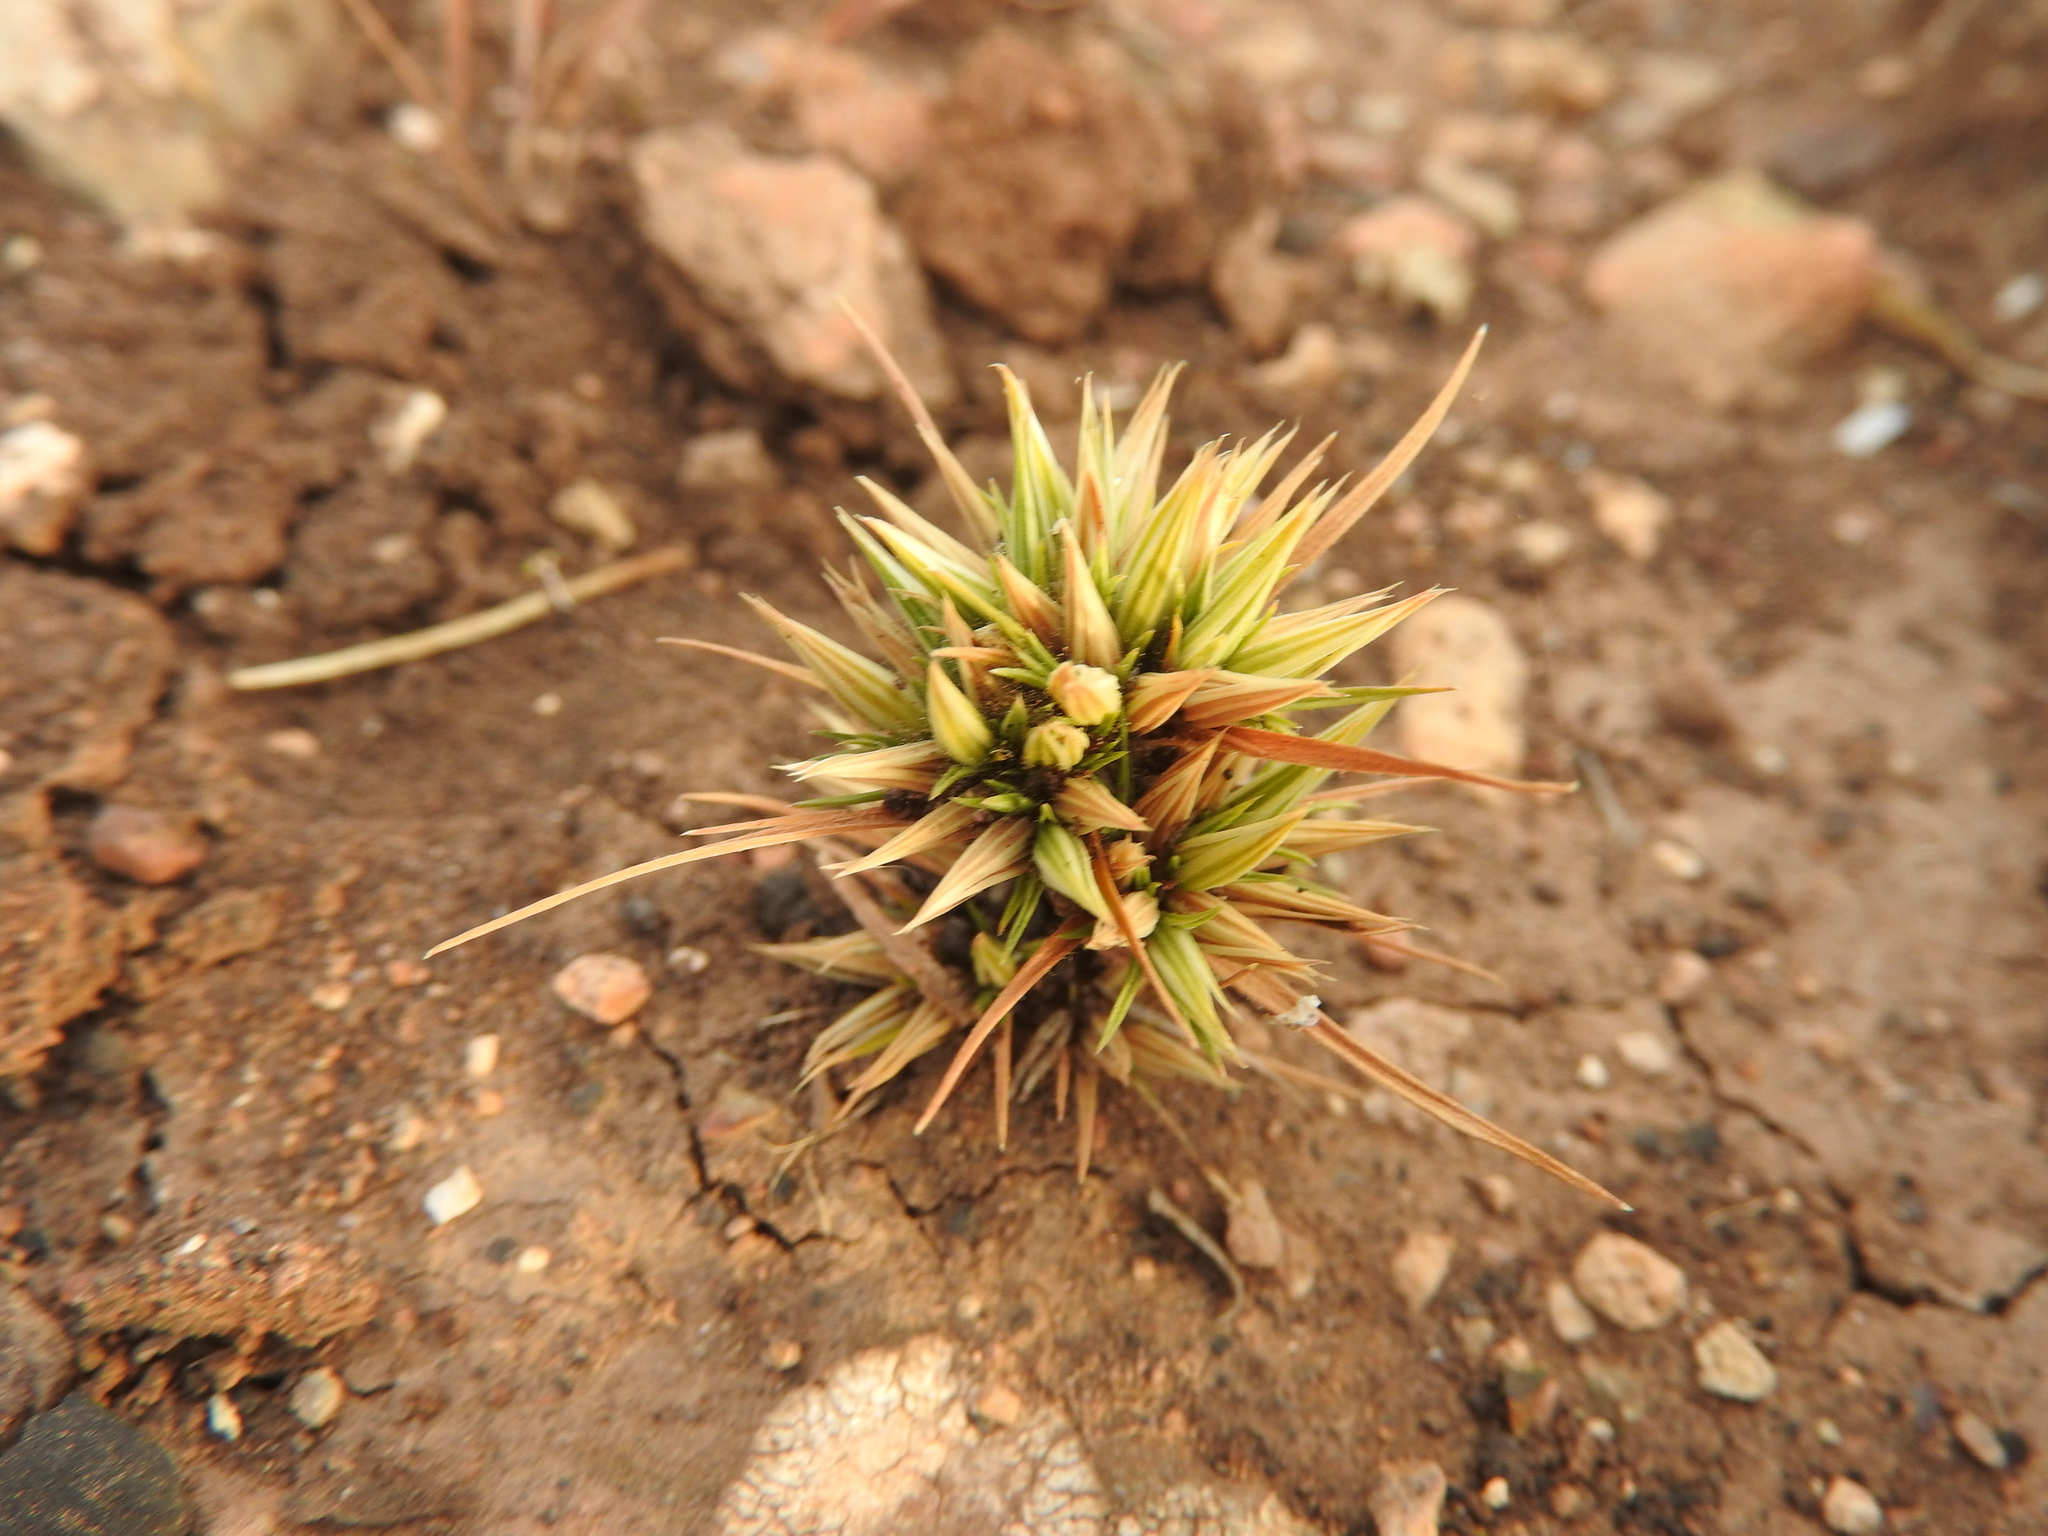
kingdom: Plantae
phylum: Tracheophyta
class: Magnoliopsida
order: Caryophyllales
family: Caryophyllaceae
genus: Minuartia
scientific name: Minuartia montana
